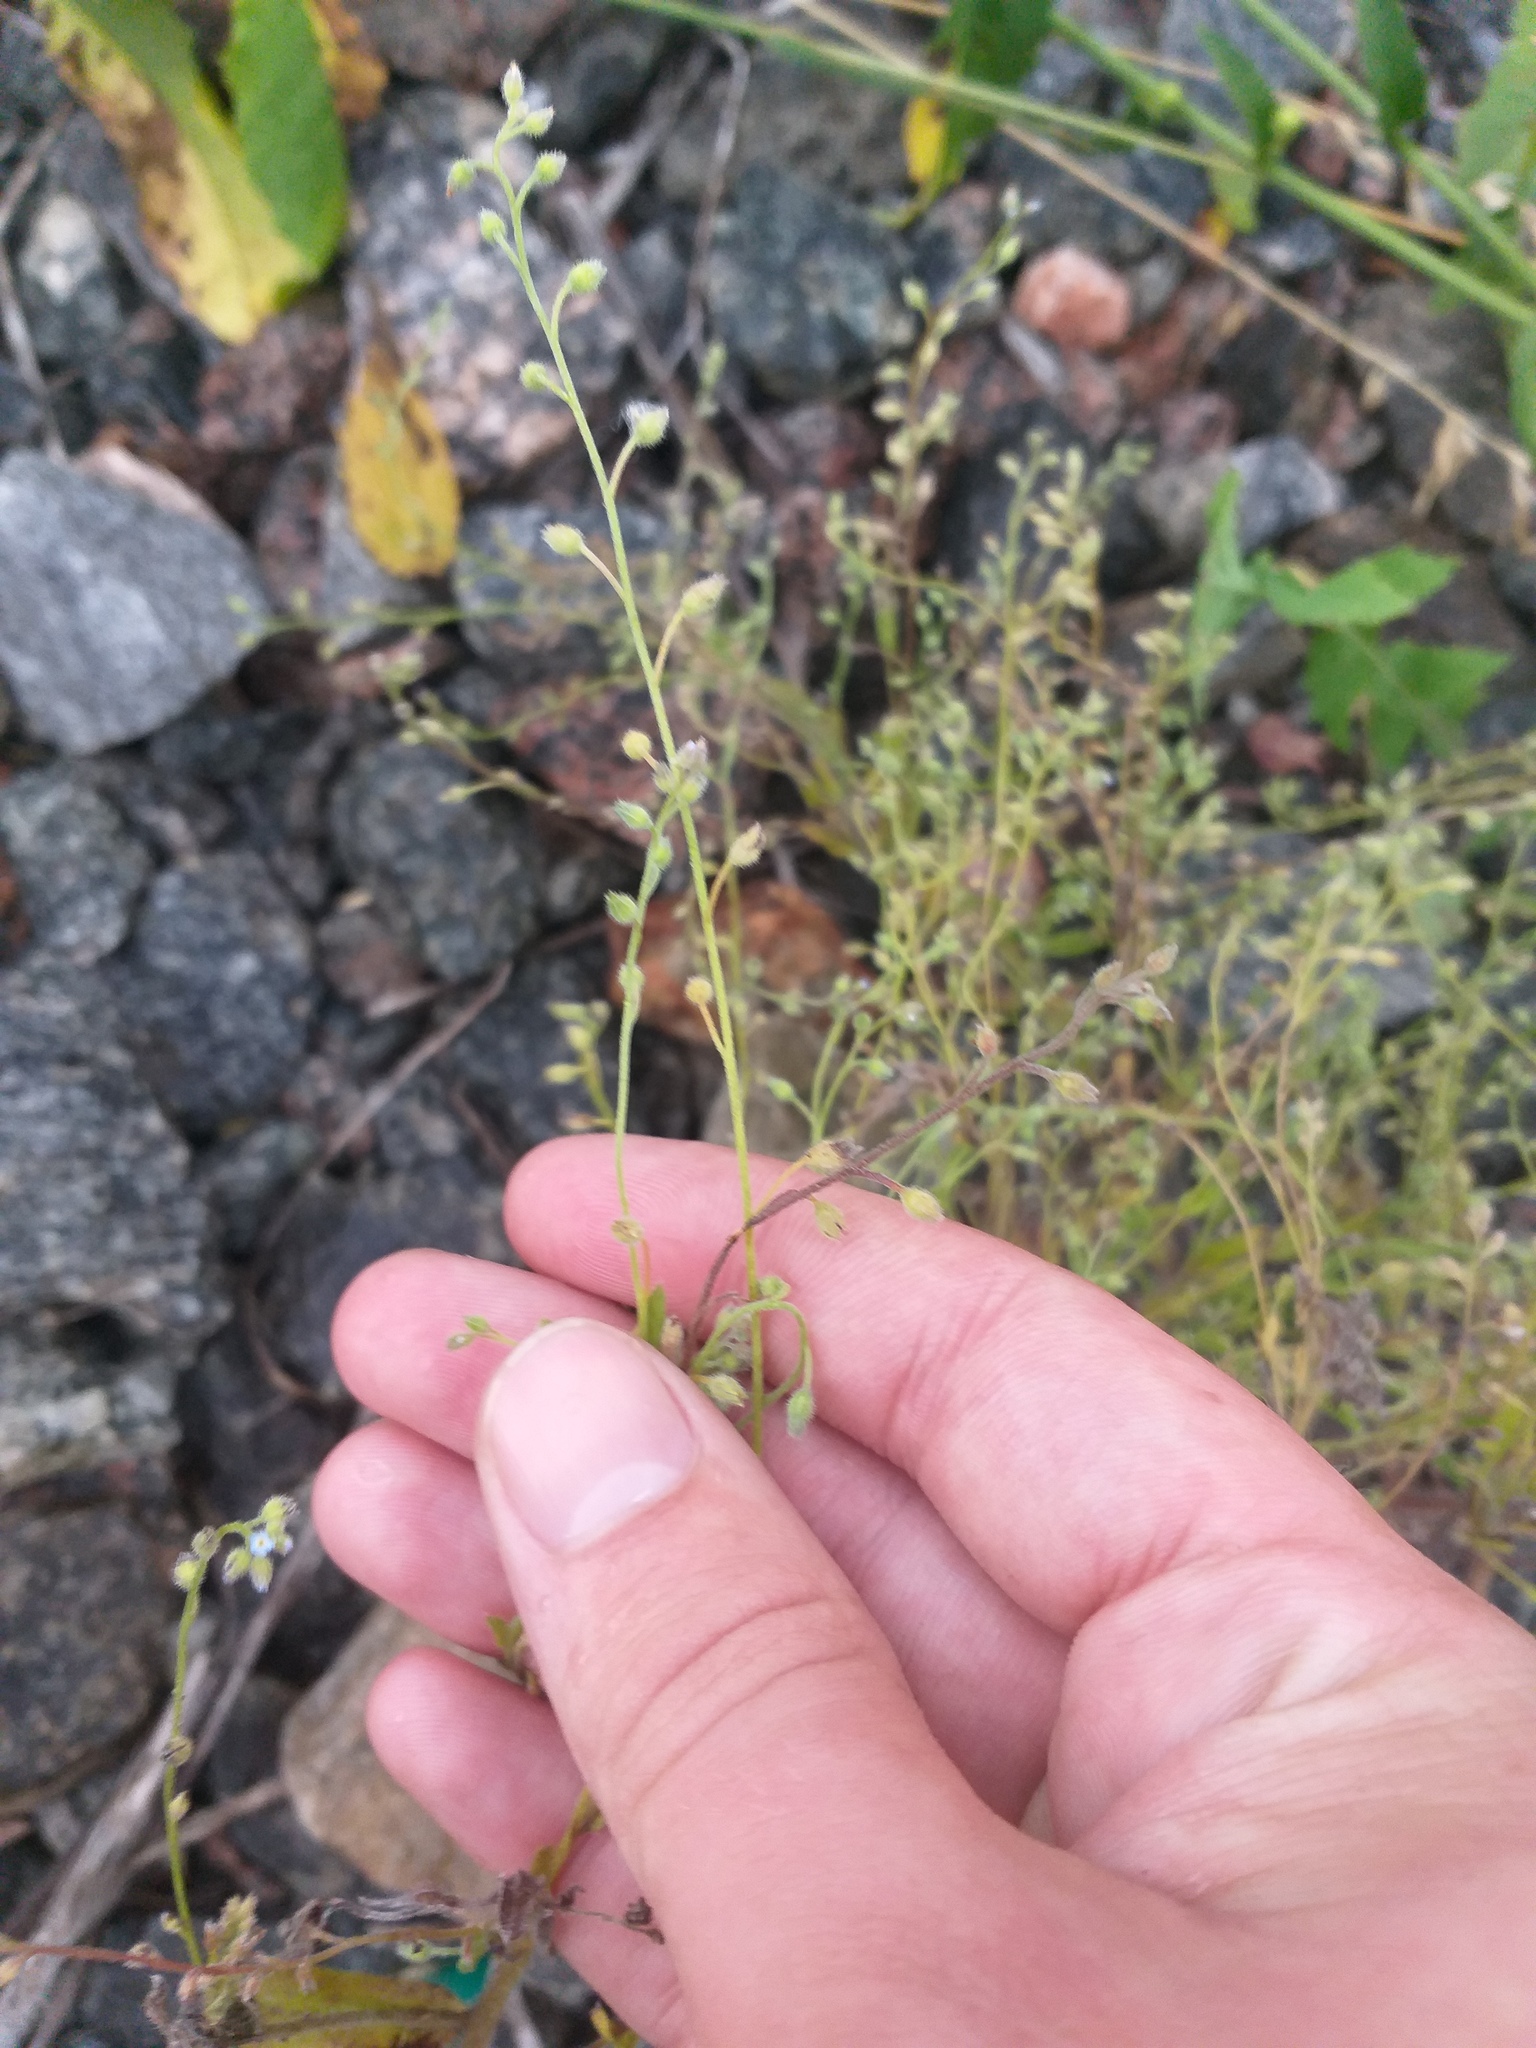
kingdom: Plantae
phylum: Tracheophyta
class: Magnoliopsida
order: Boraginales
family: Boraginaceae
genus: Myosotis
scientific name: Myosotis arvensis
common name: Field forget-me-not
